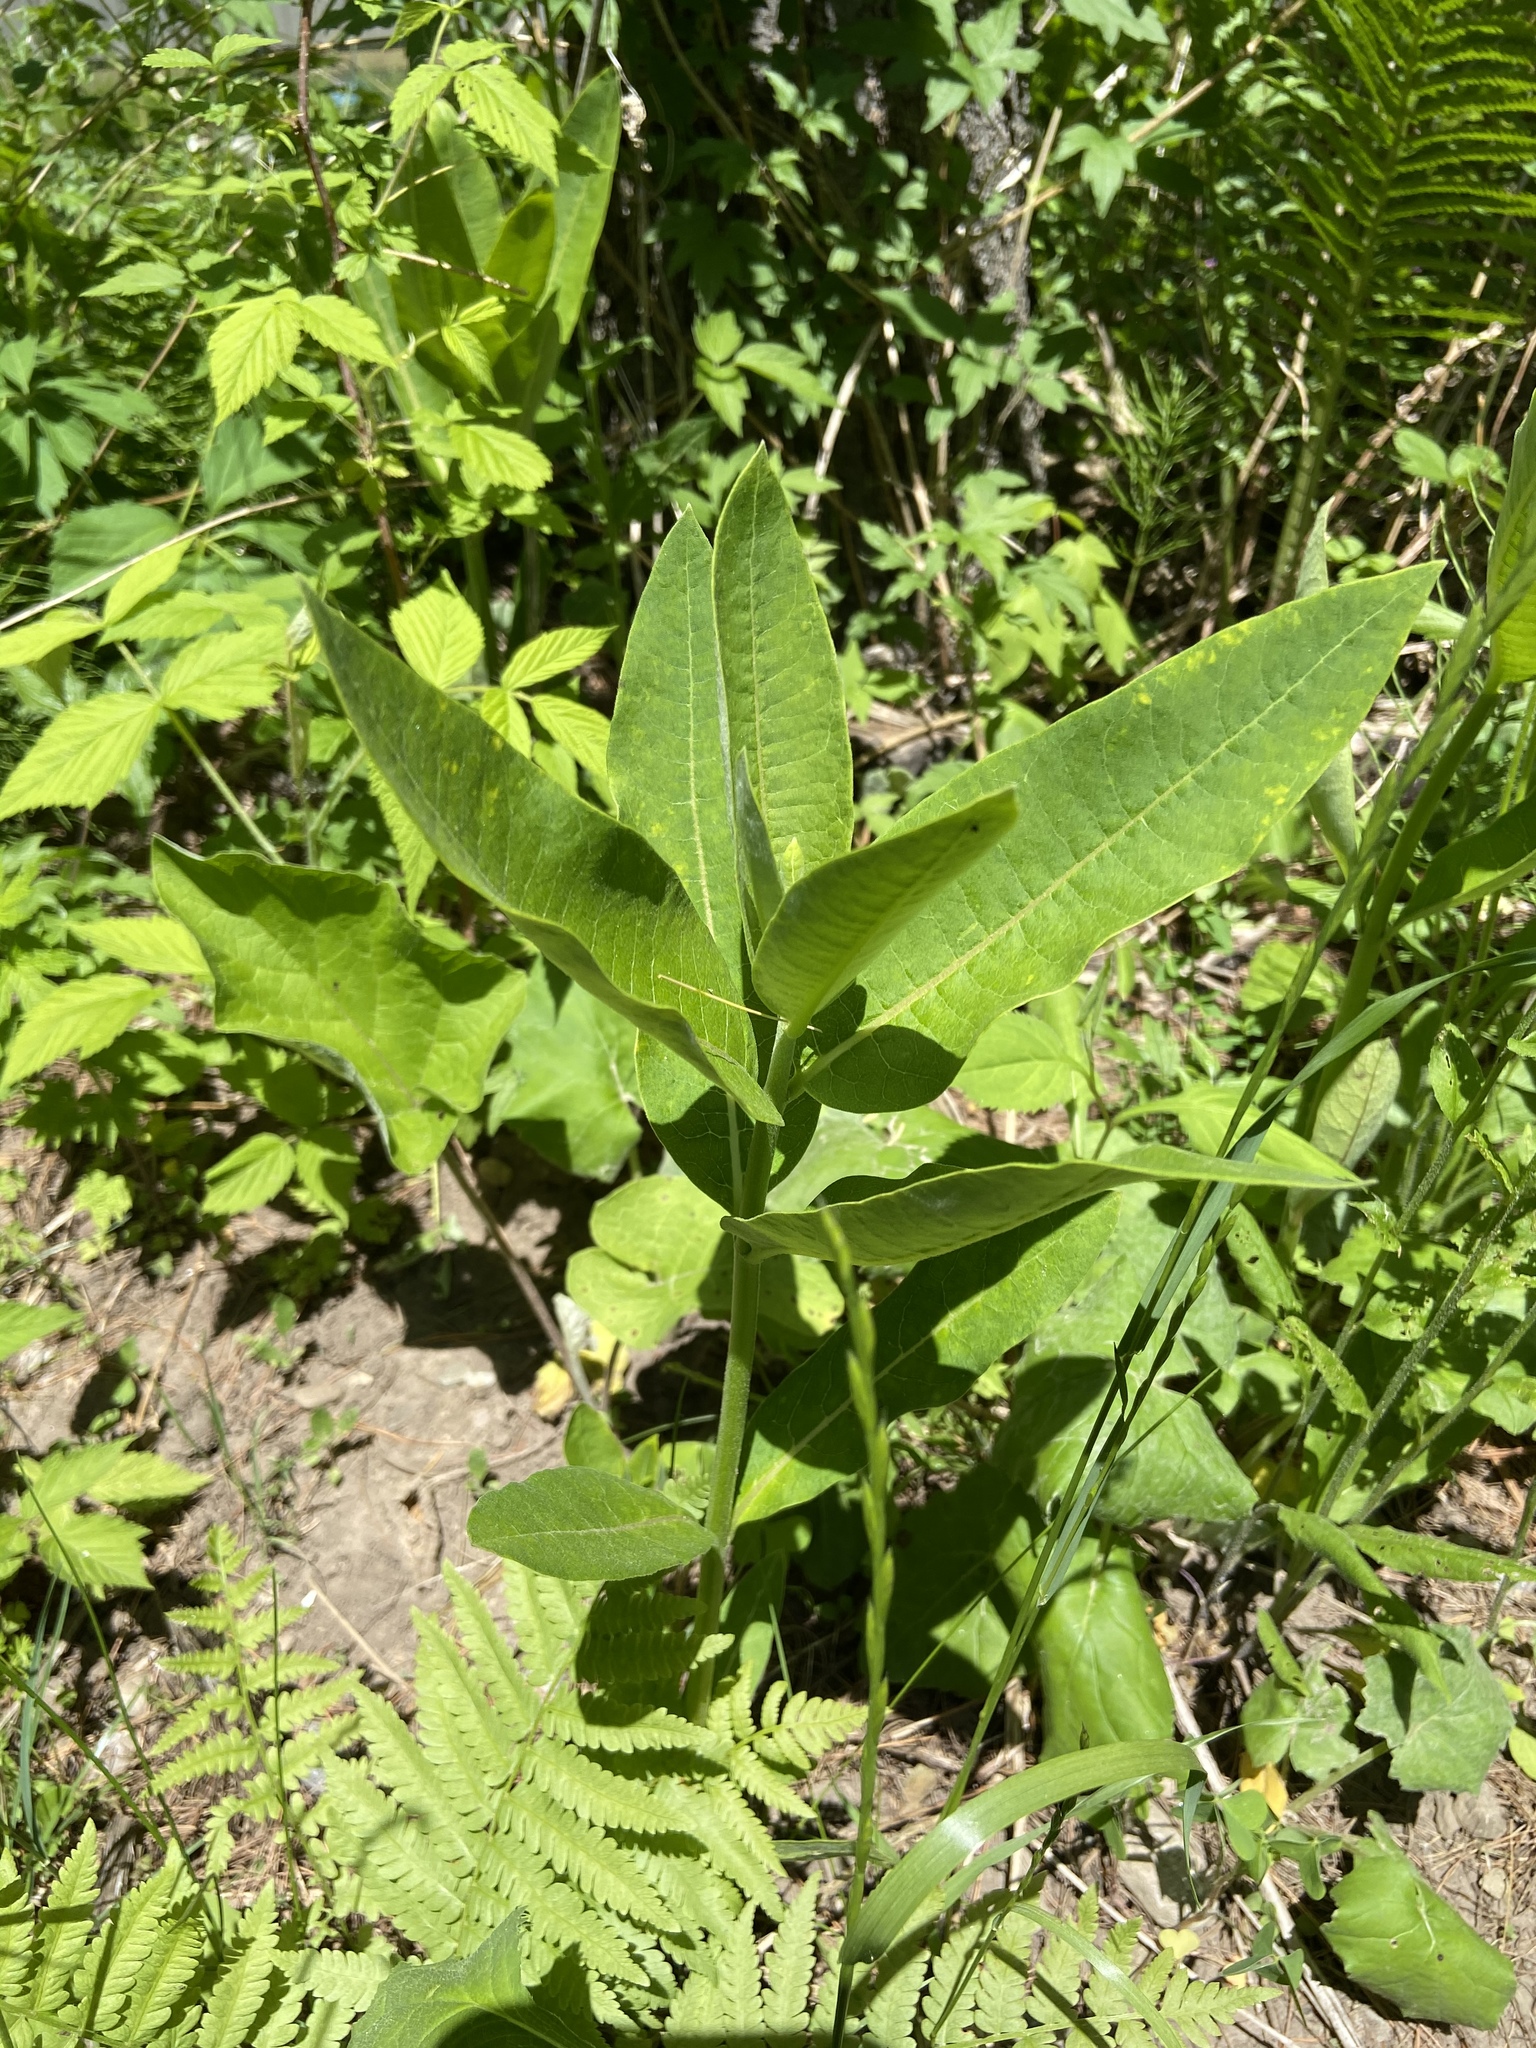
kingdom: Plantae
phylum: Tracheophyta
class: Magnoliopsida
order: Gentianales
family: Apocynaceae
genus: Asclepias
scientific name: Asclepias syriaca
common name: Common milkweed
